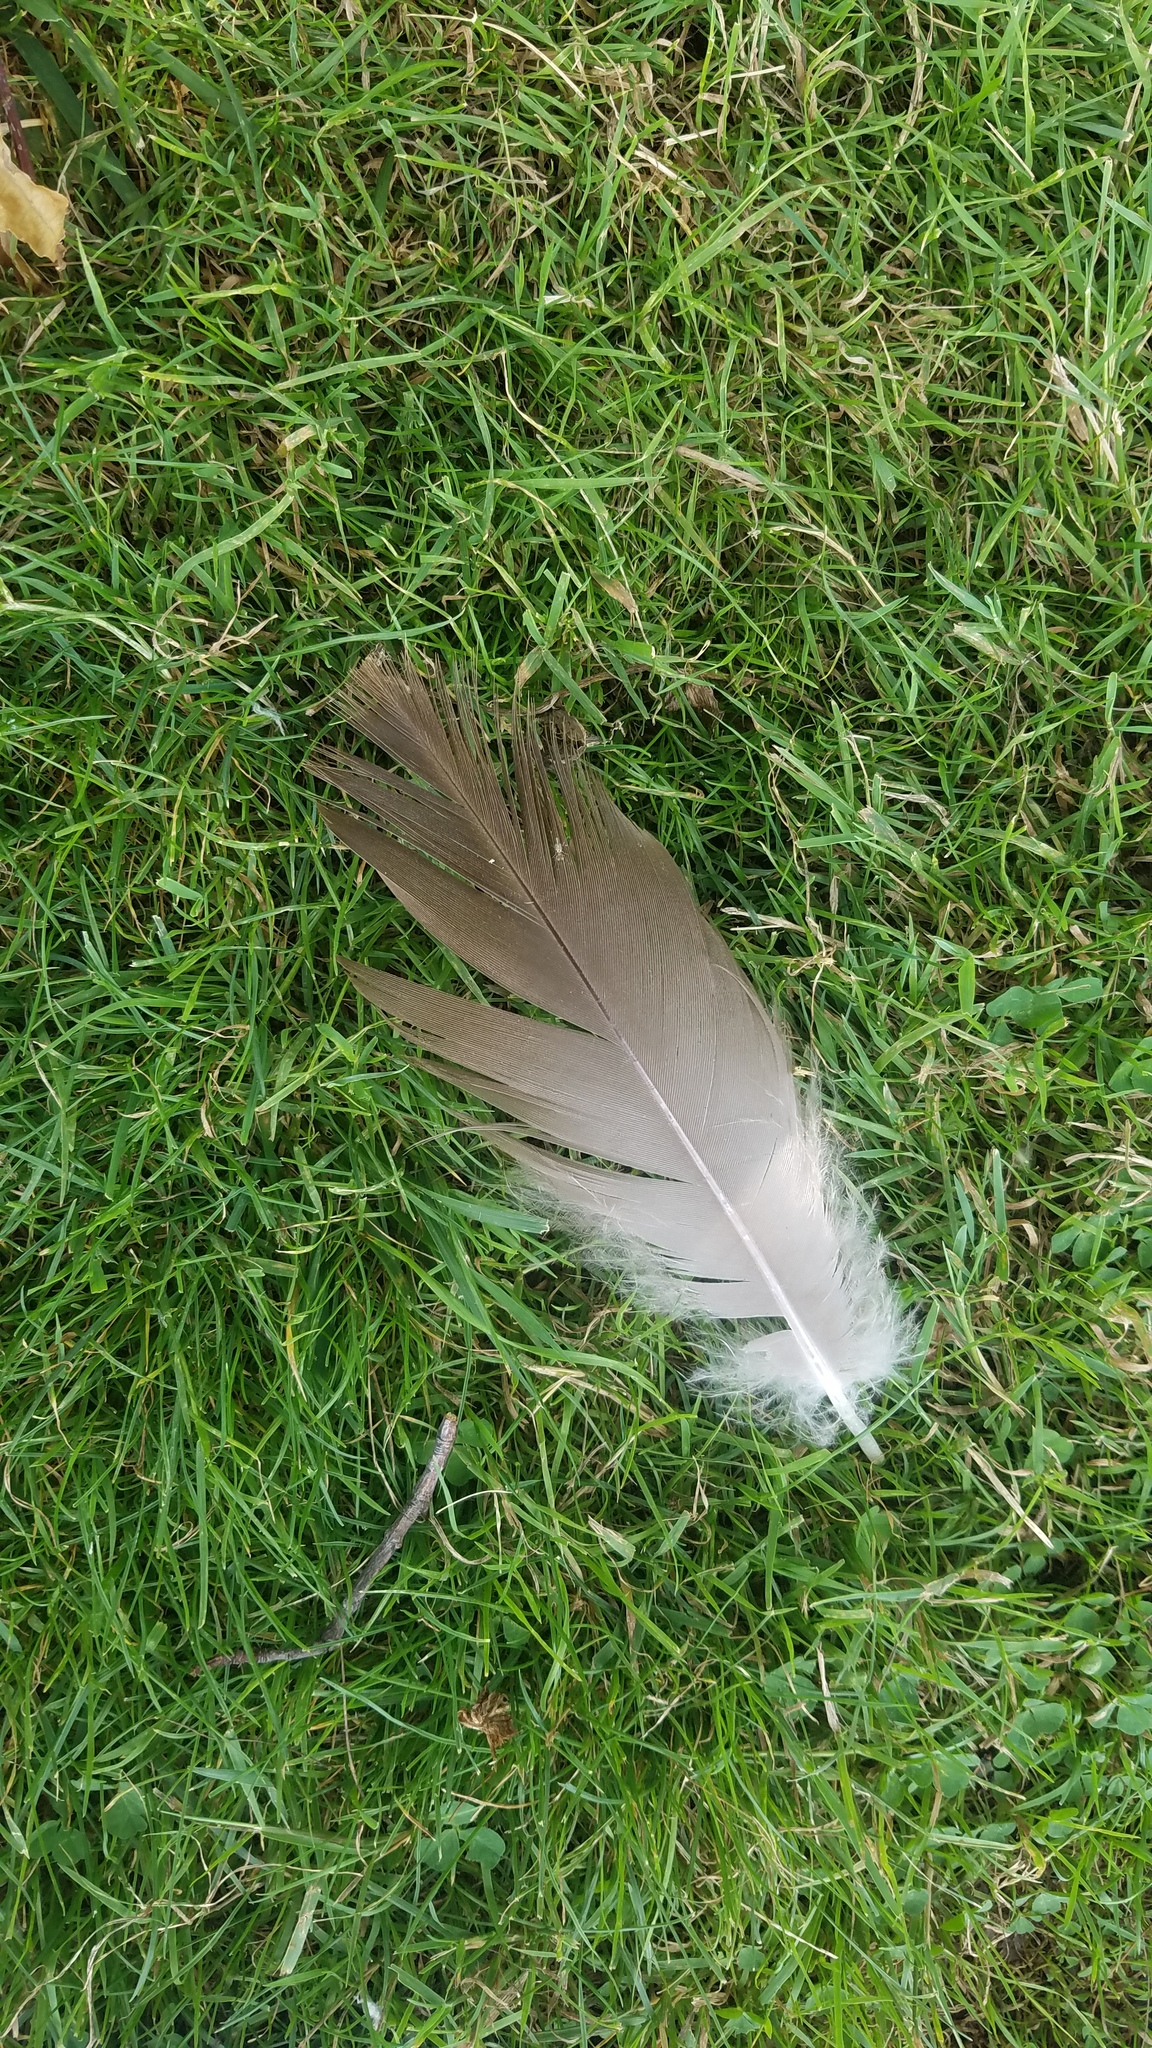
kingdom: Animalia
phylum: Chordata
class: Aves
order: Anseriformes
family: Anatidae
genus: Branta
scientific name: Branta canadensis
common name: Canada goose
